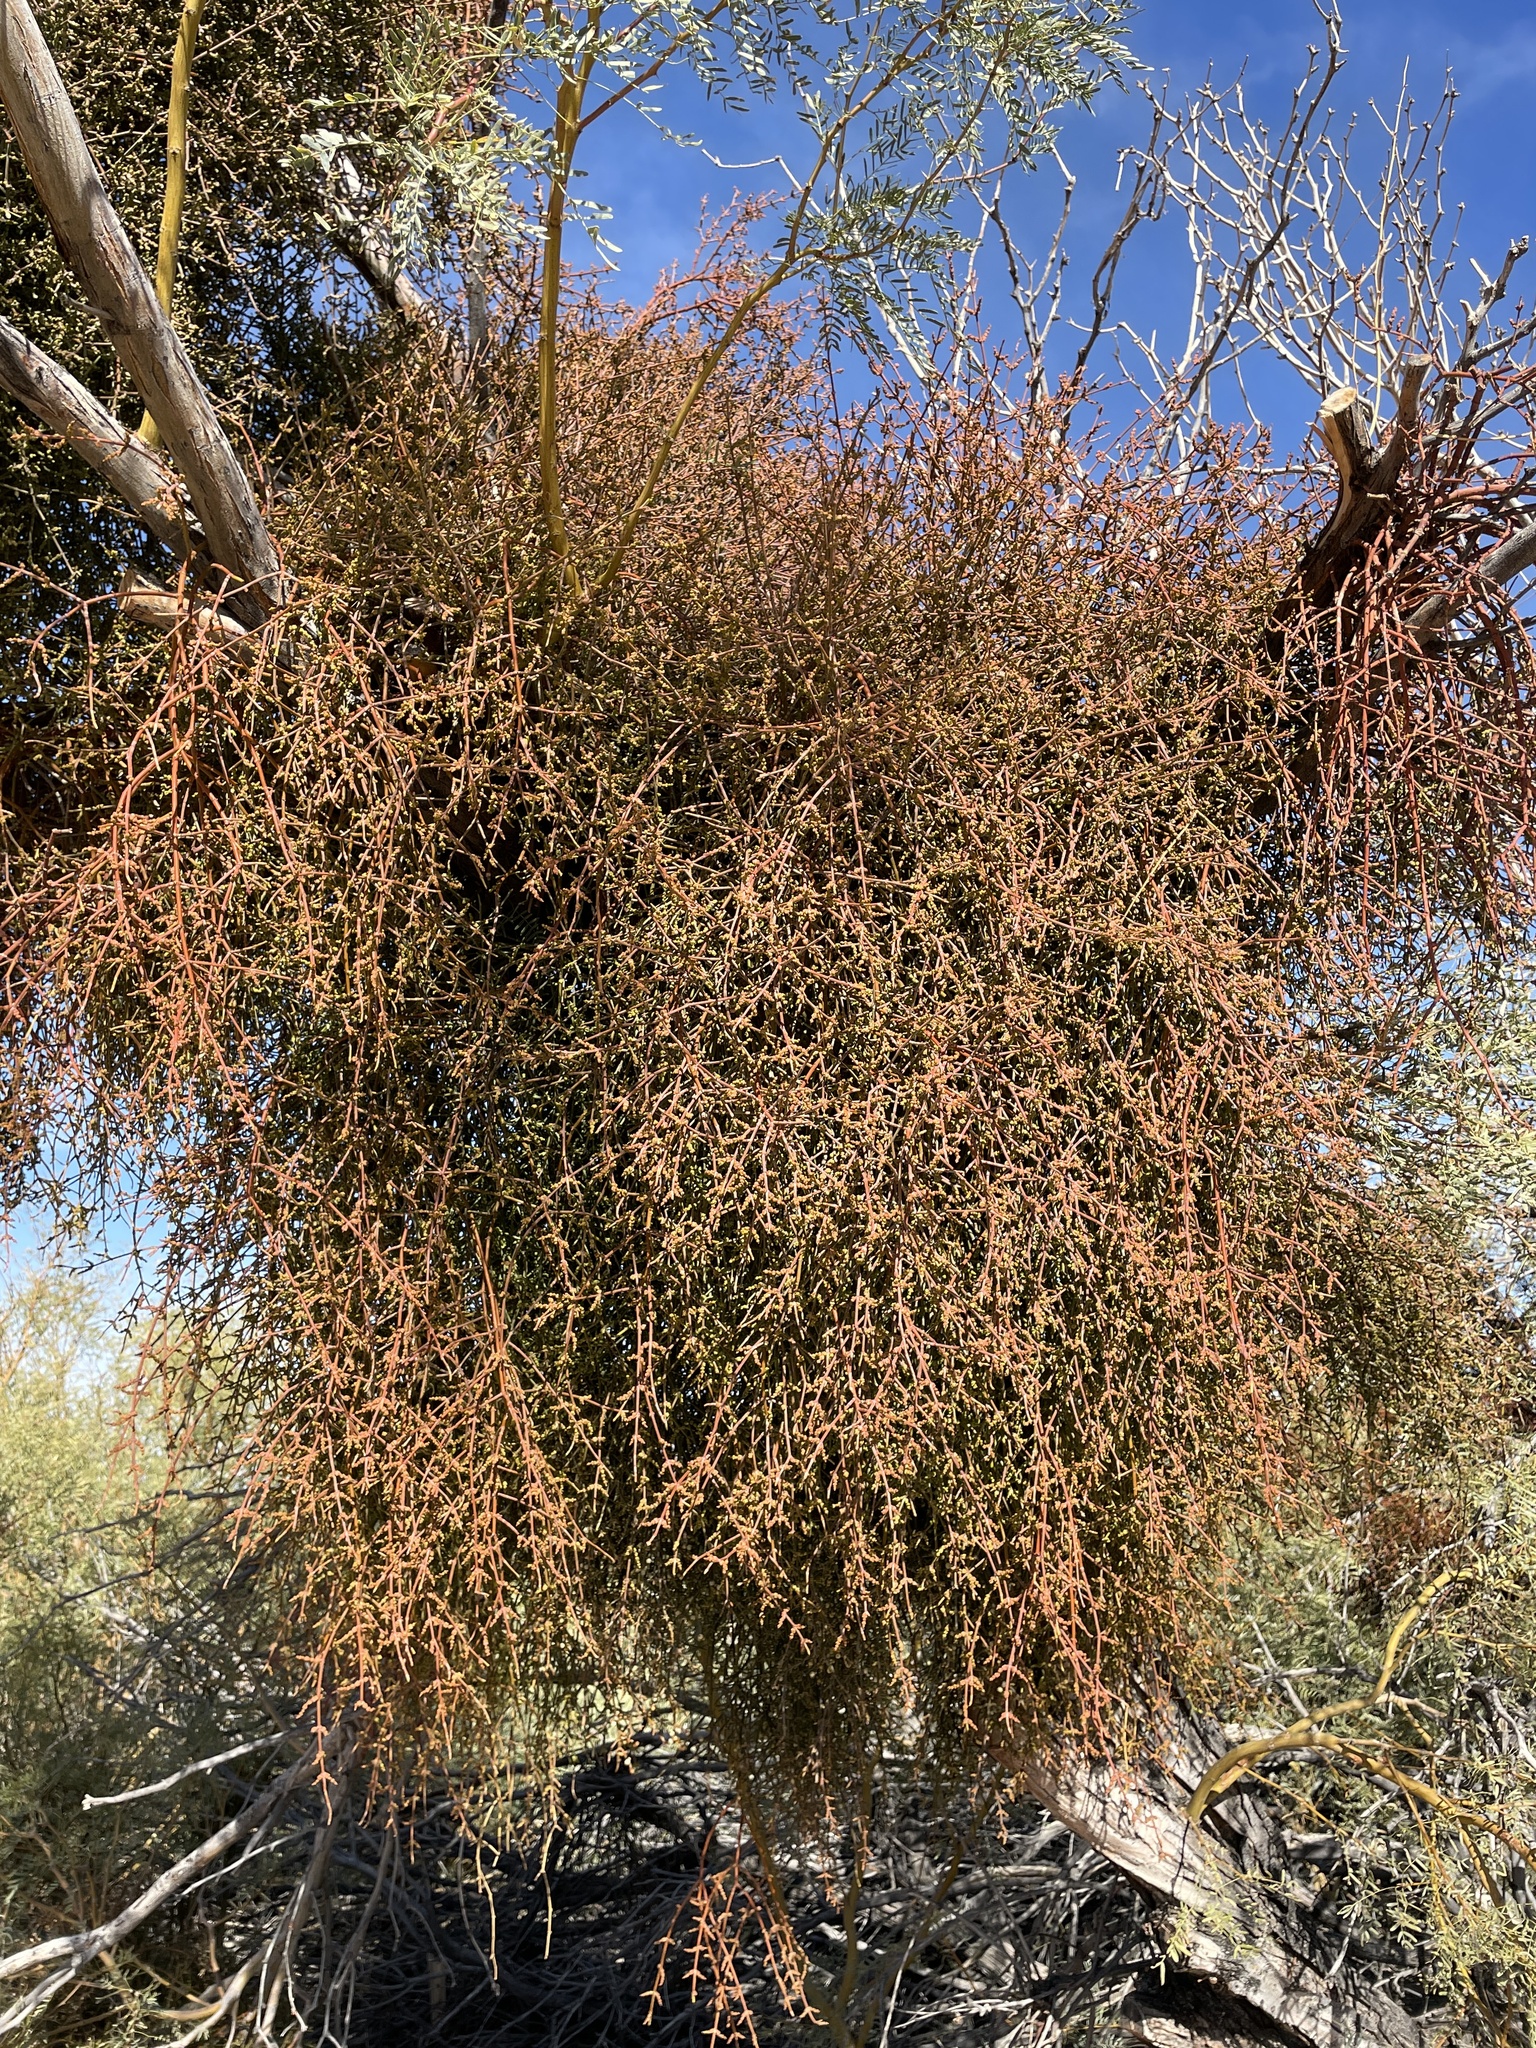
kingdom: Plantae
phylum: Tracheophyta
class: Magnoliopsida
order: Santalales
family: Viscaceae
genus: Phoradendron
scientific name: Phoradendron californicum
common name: Acacia mistletoe
